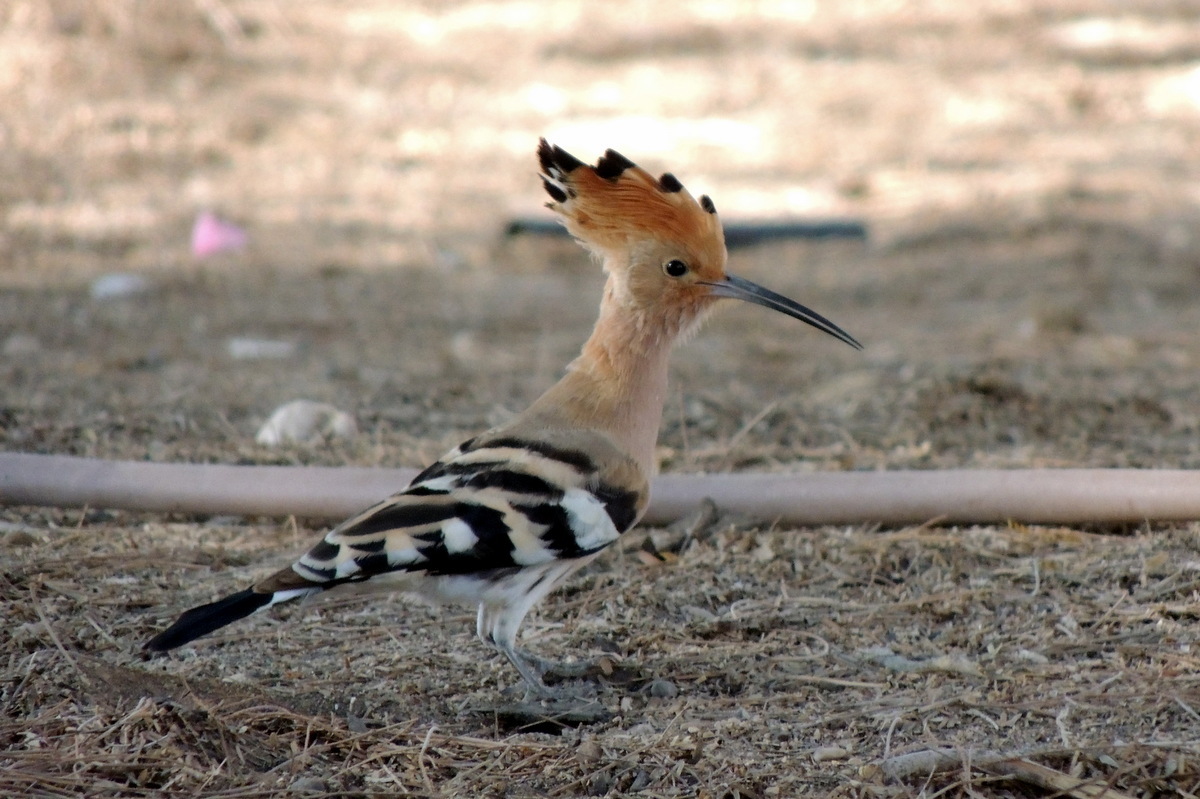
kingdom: Animalia
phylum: Chordata
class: Aves
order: Bucerotiformes
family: Upupidae
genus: Upupa
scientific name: Upupa epops
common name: Eurasian hoopoe
